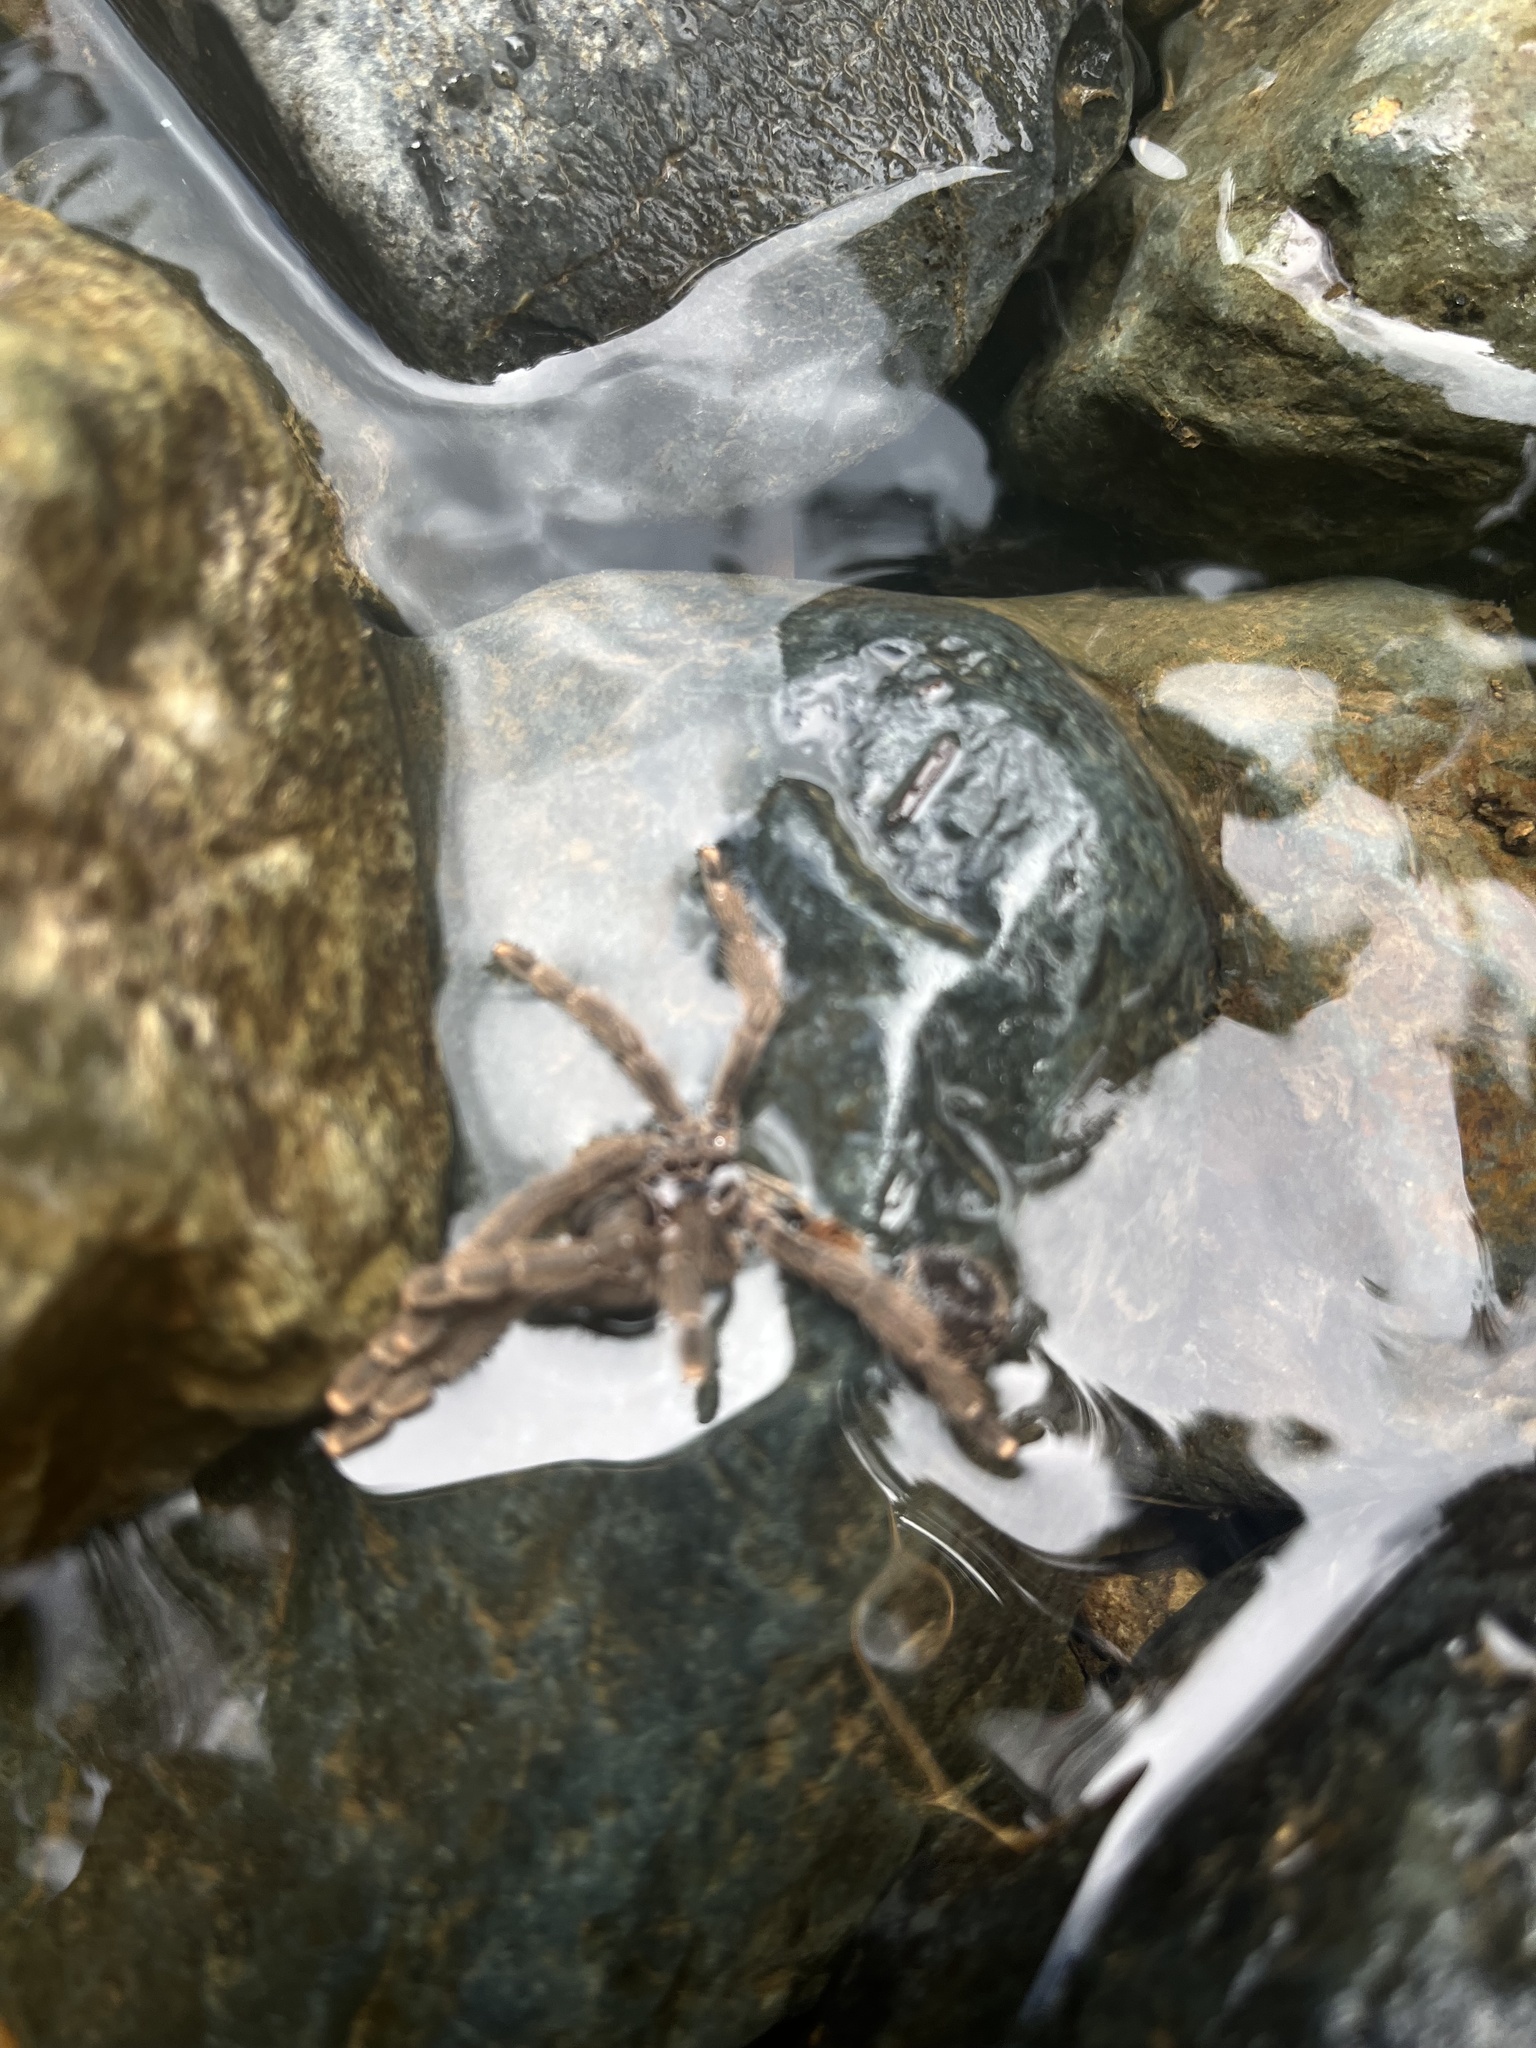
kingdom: Animalia
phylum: Arthropoda
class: Arachnida
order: Araneae
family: Theraphosidae
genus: Caribena
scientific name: Caribena laeta
